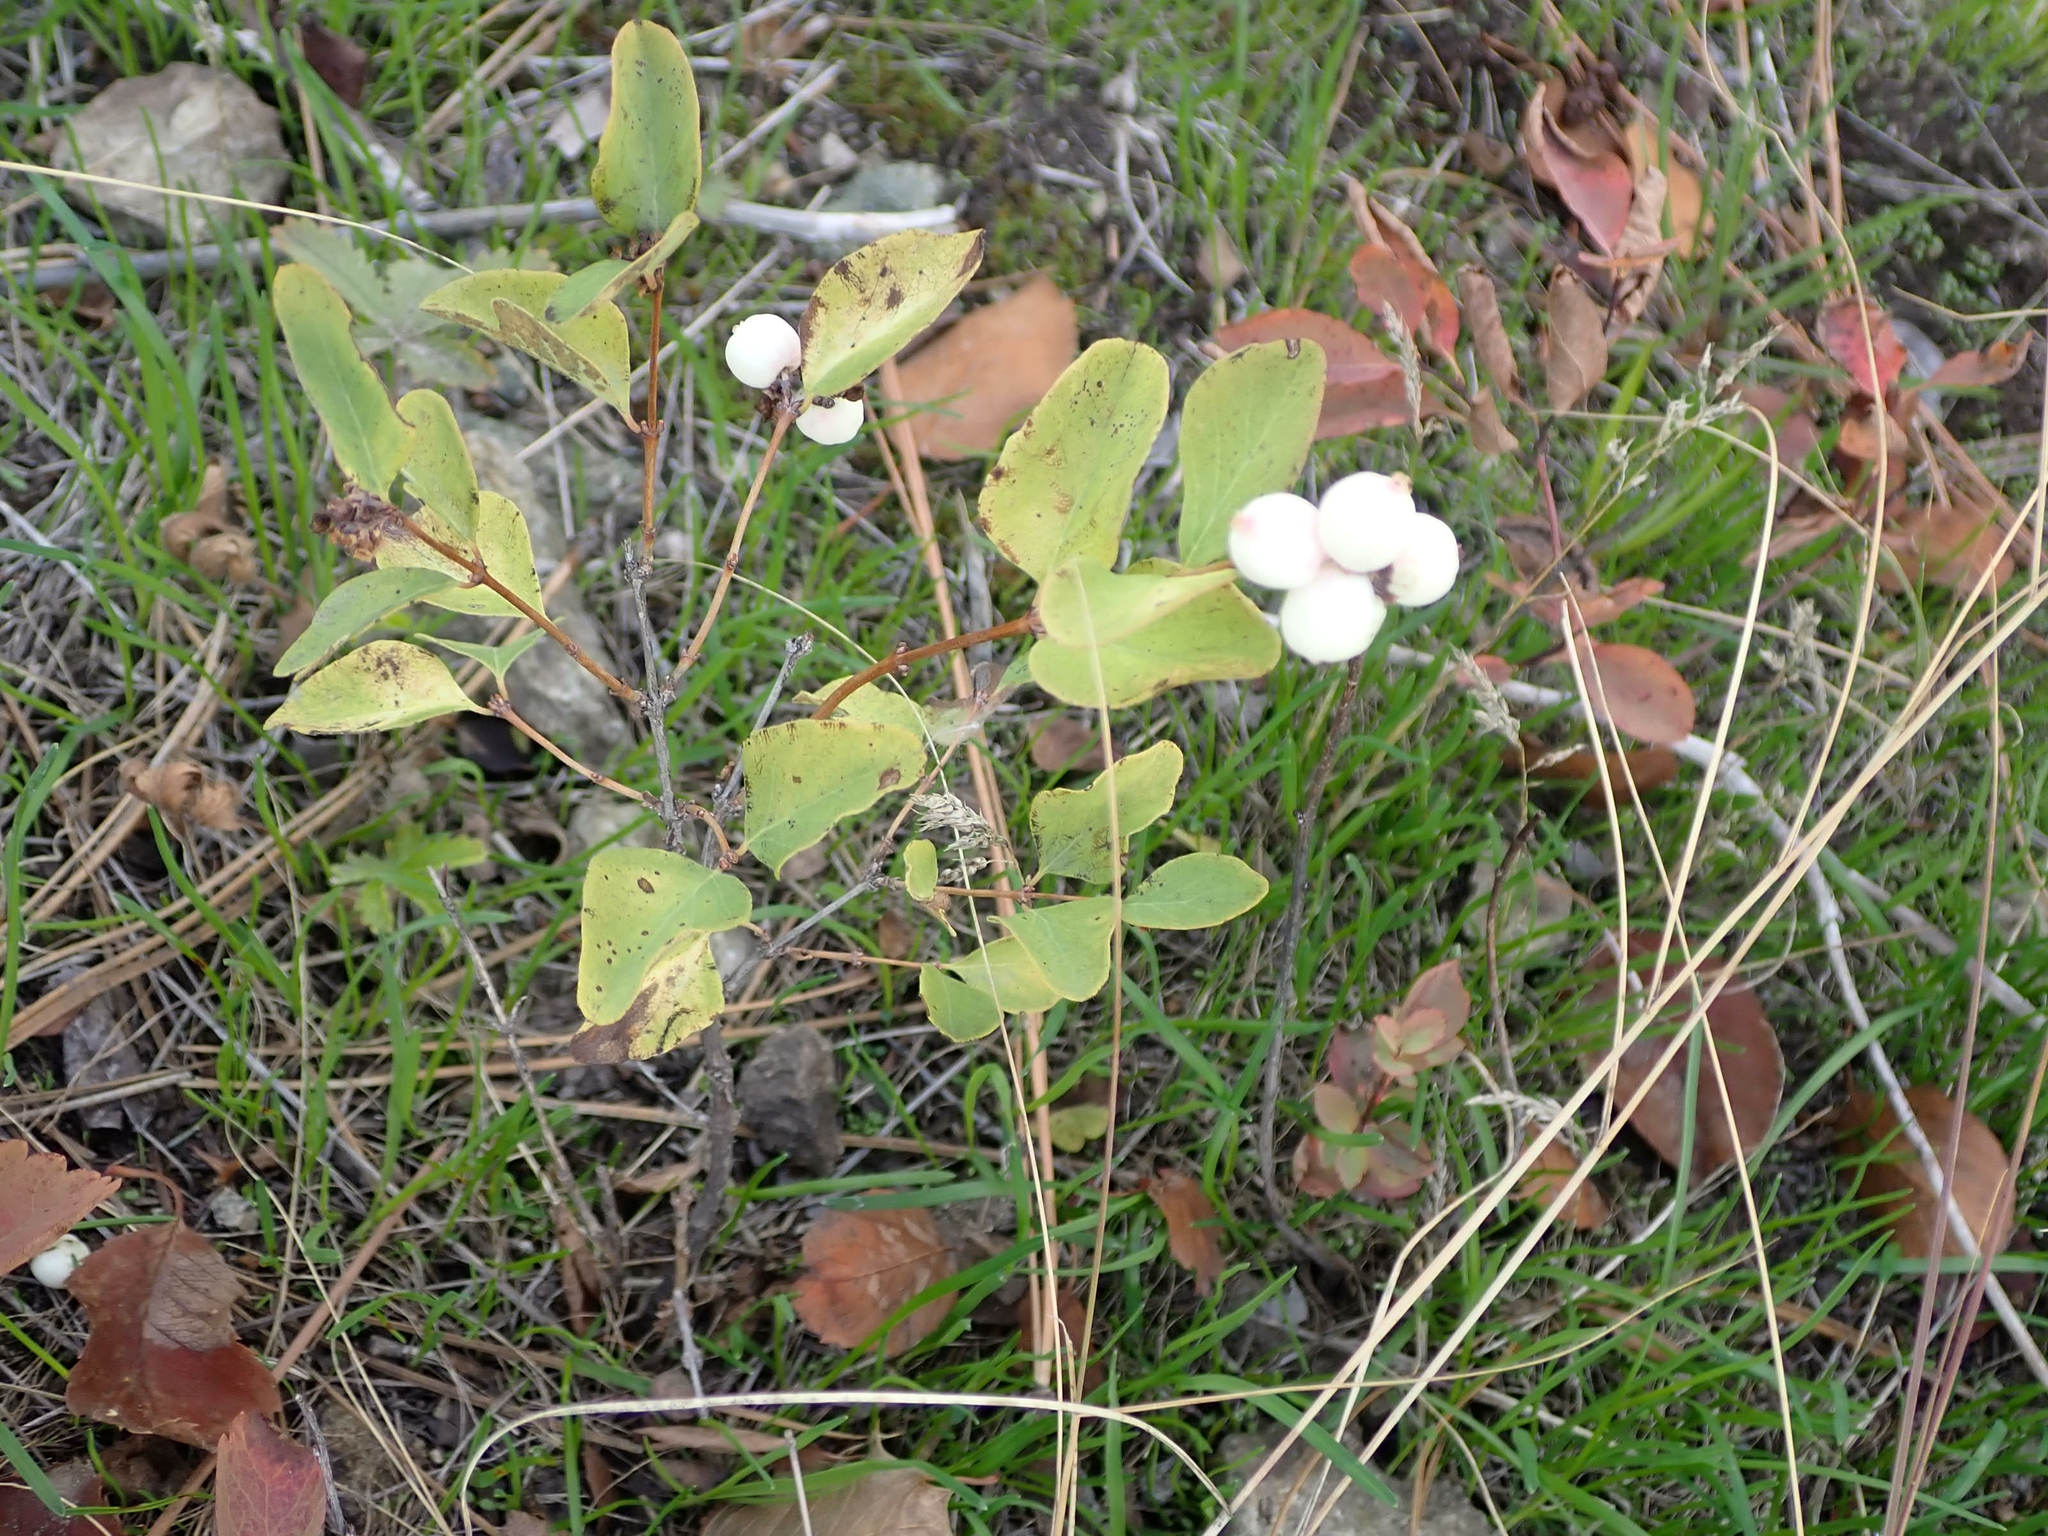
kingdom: Plantae
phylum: Tracheophyta
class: Magnoliopsida
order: Dipsacales
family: Caprifoliaceae
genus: Symphoricarpos
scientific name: Symphoricarpos albus
